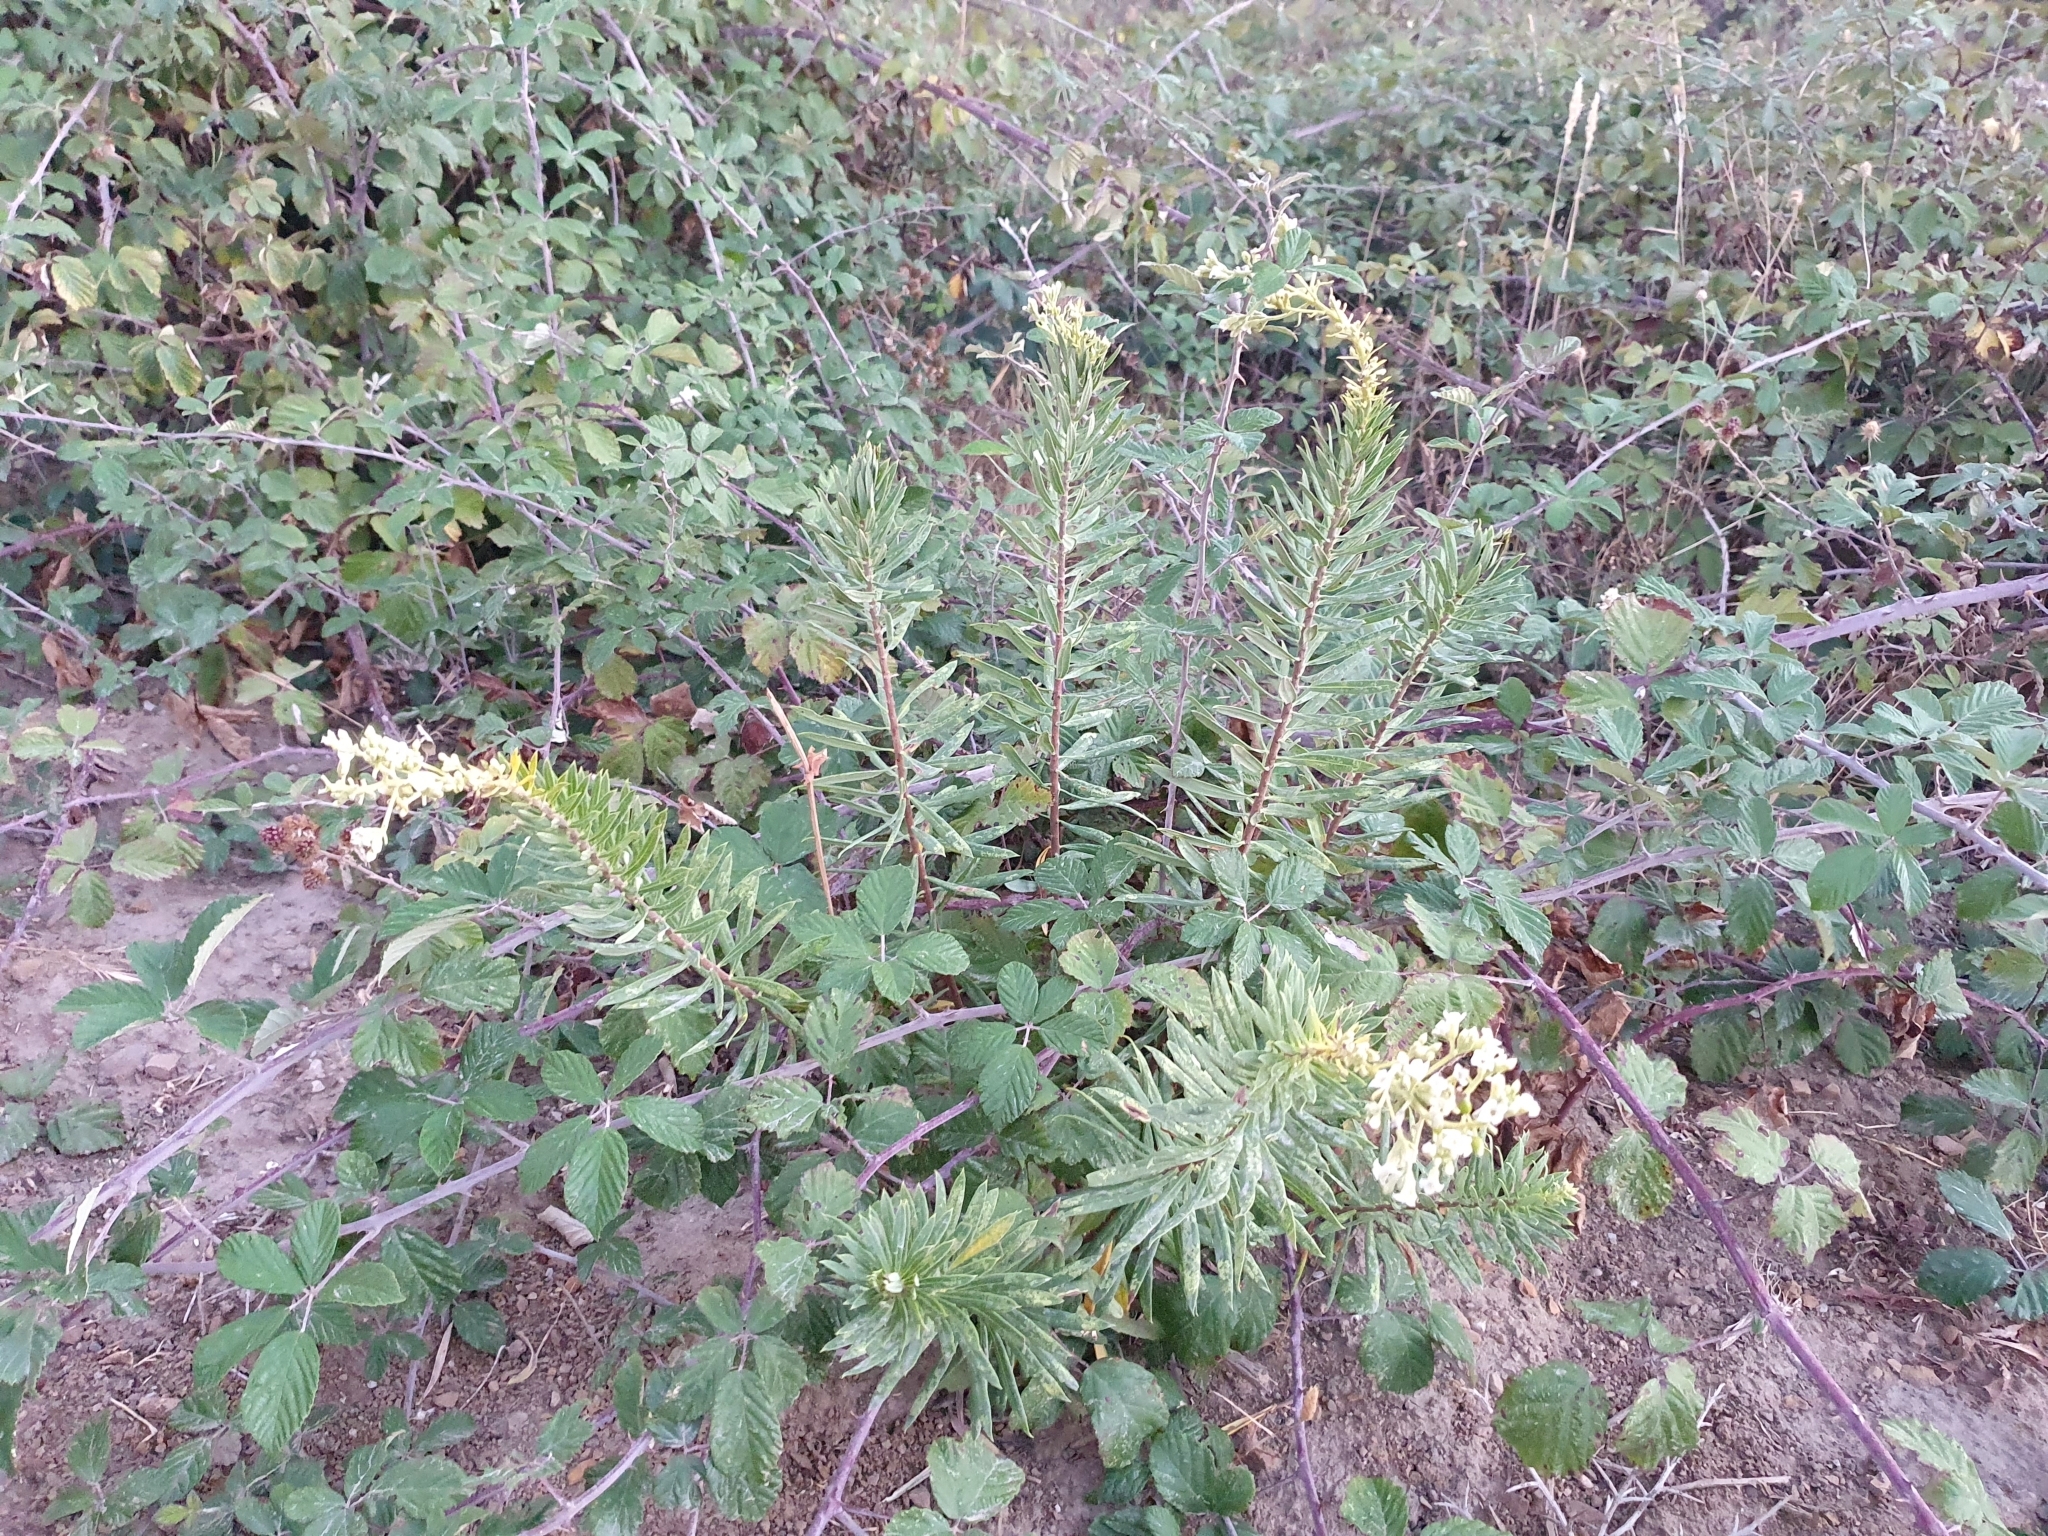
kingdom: Plantae
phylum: Tracheophyta
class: Magnoliopsida
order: Malvales
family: Thymelaeaceae
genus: Daphne
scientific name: Daphne gnidium
